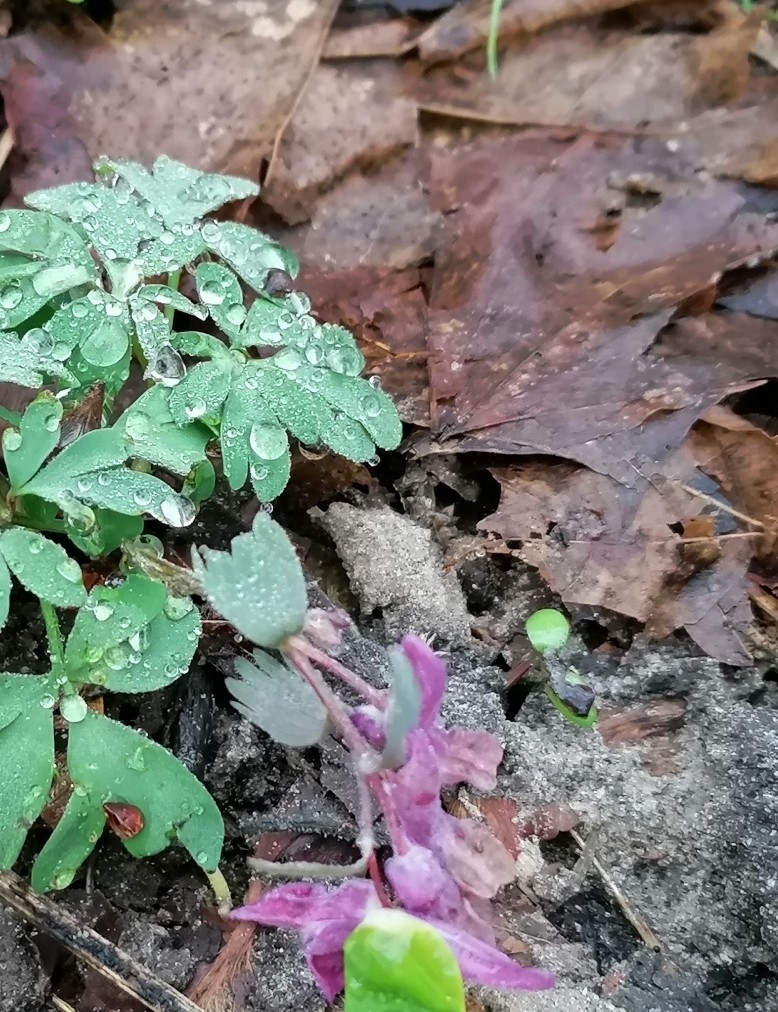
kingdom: Plantae
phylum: Tracheophyta
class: Magnoliopsida
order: Ranunculales
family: Papaveraceae
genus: Corydalis
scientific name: Corydalis solida
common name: Bird-in-a-bush
